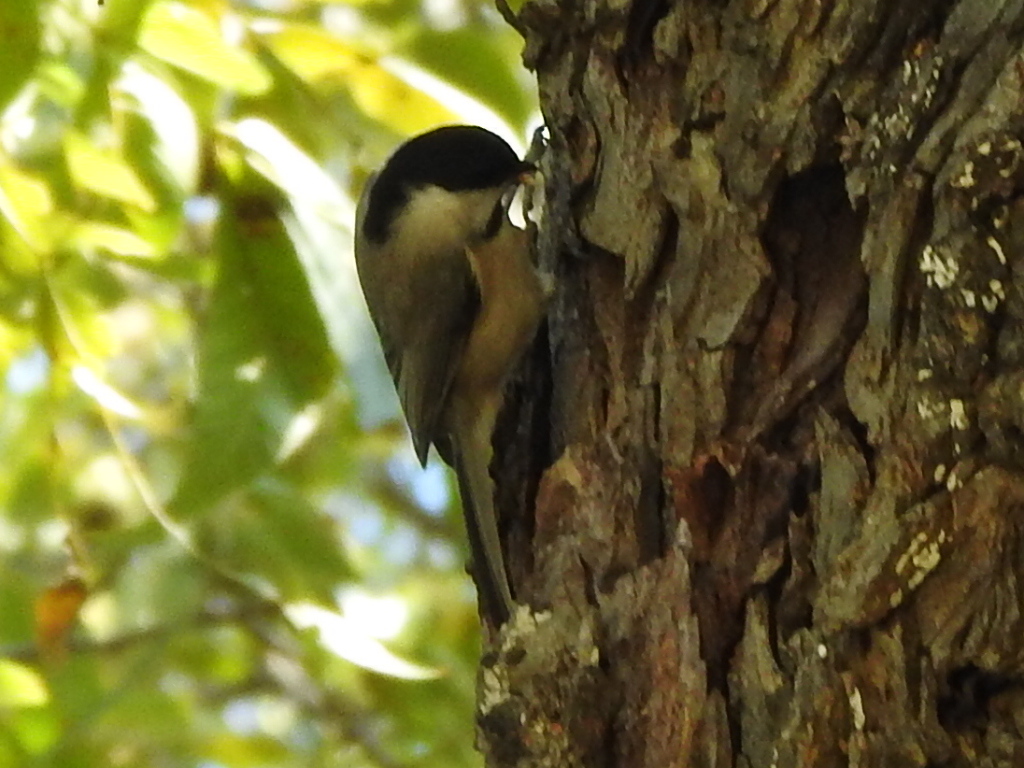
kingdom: Animalia
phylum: Chordata
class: Aves
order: Passeriformes
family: Paridae
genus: Poecile
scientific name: Poecile carolinensis
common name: Carolina chickadee
